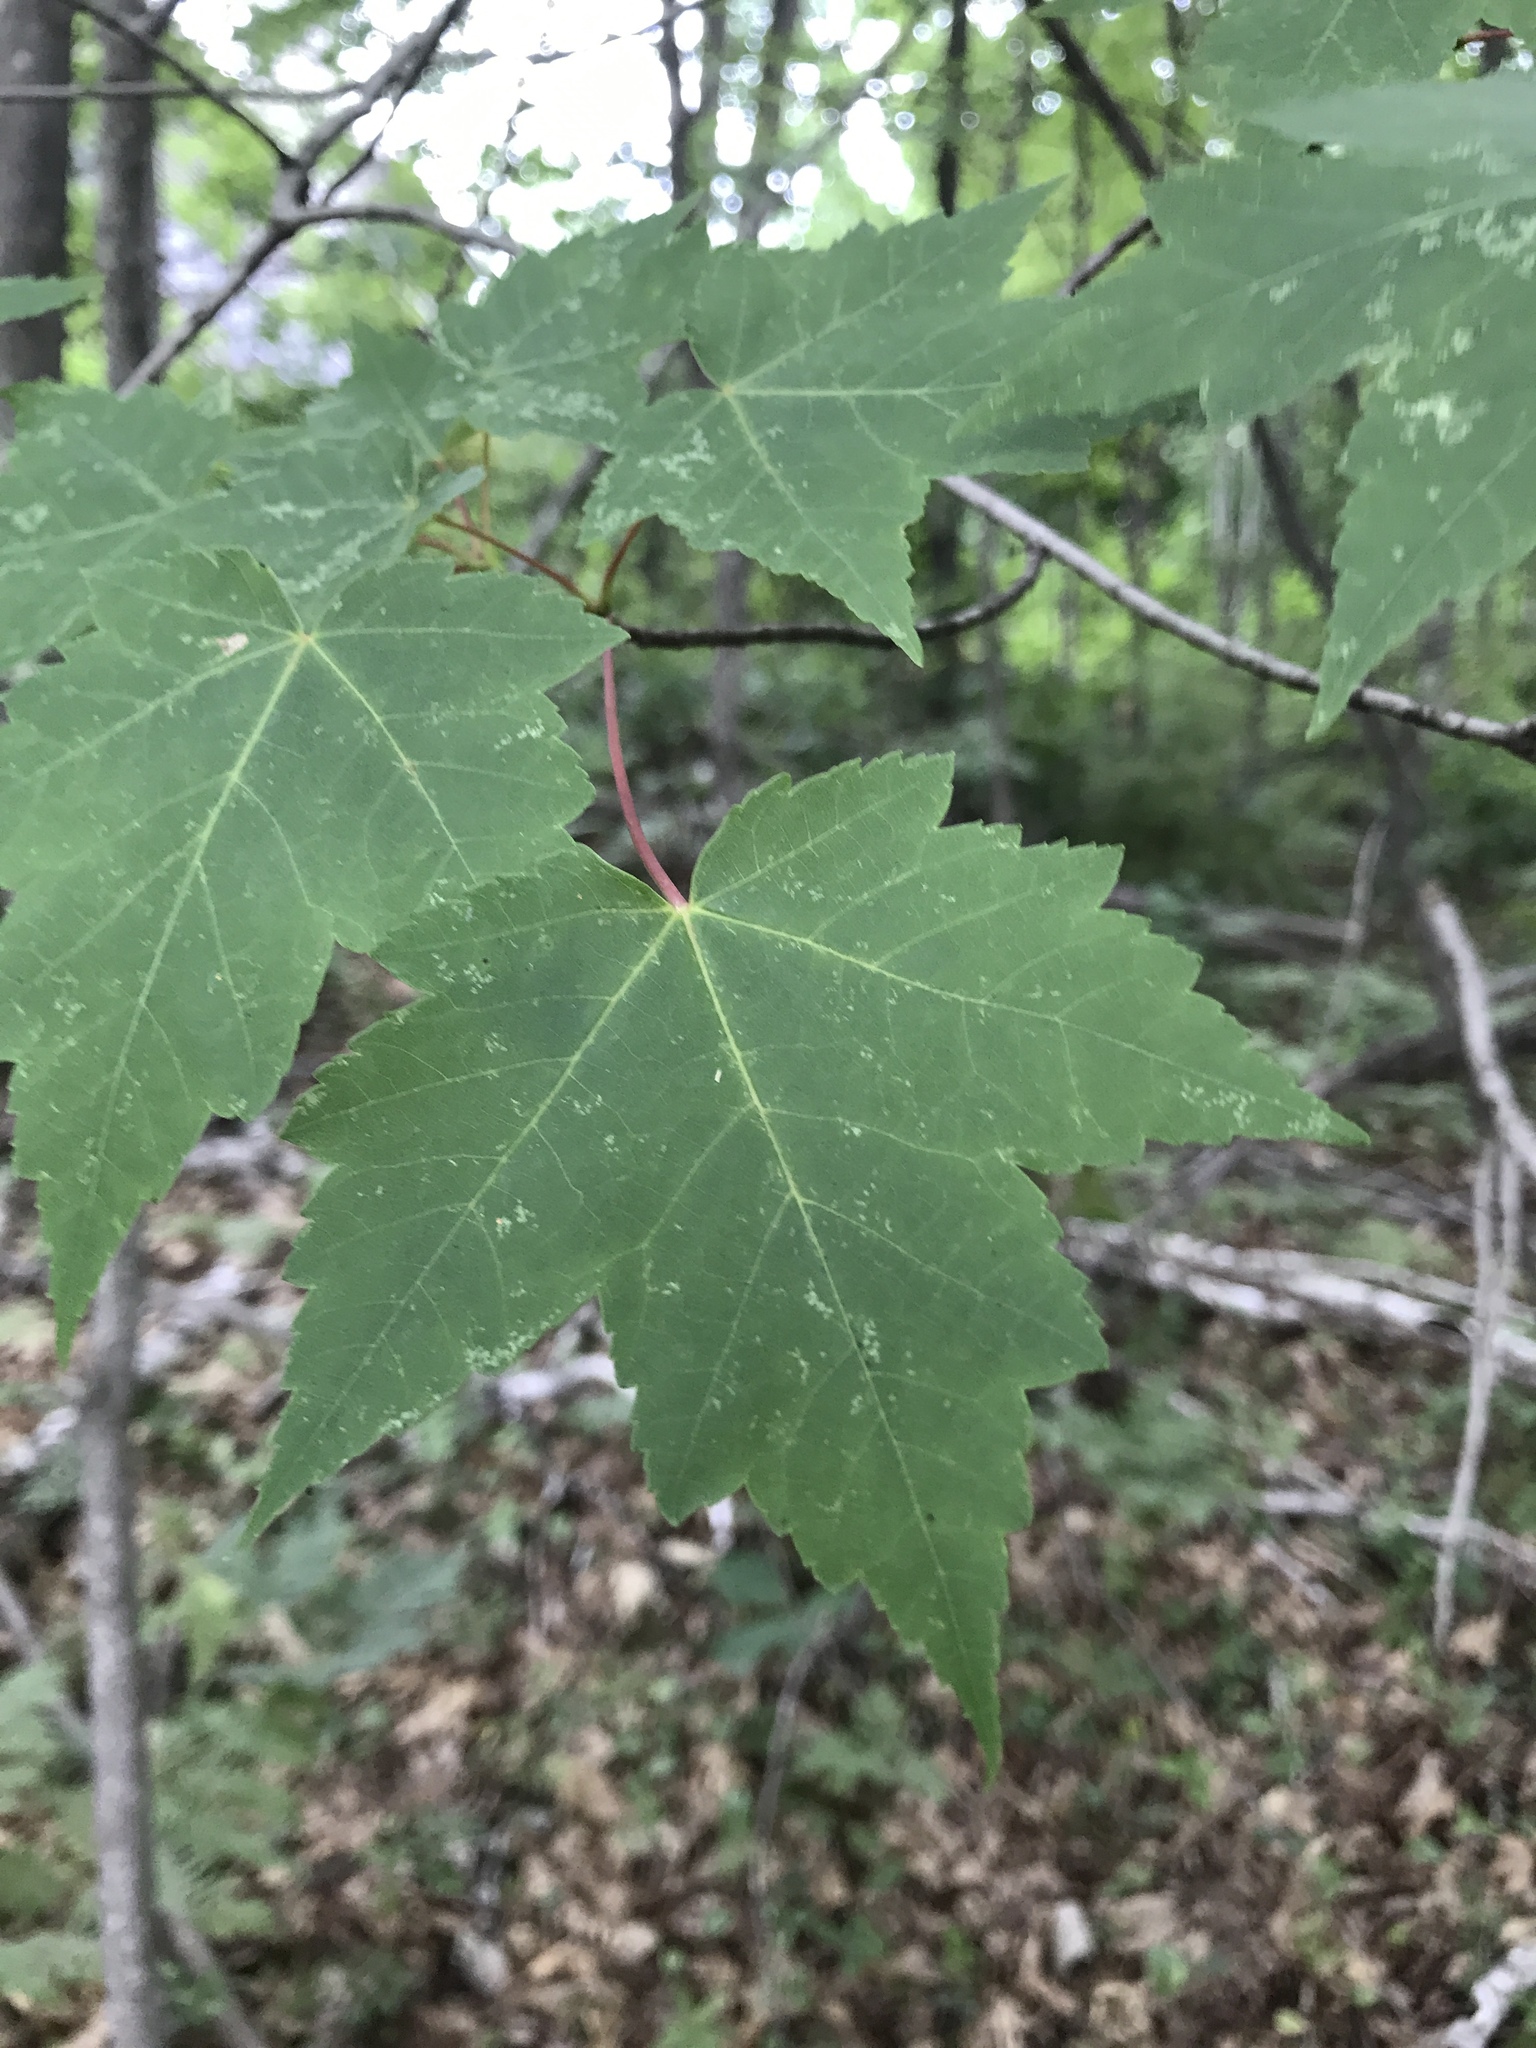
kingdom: Plantae
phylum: Tracheophyta
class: Magnoliopsida
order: Sapindales
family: Sapindaceae
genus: Acer
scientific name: Acer rubrum
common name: Red maple
